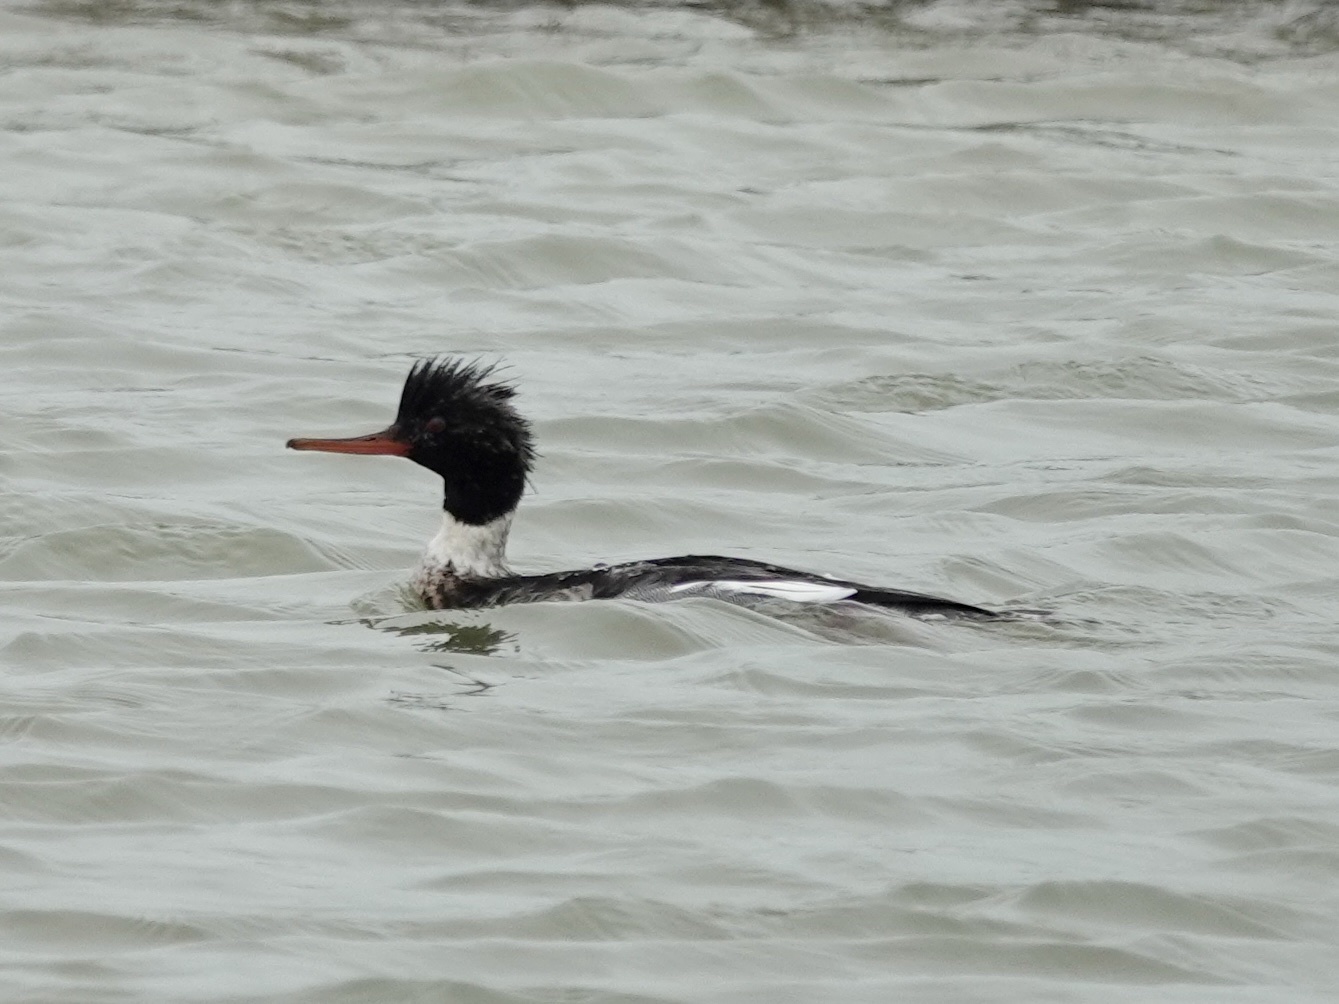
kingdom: Animalia
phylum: Chordata
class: Aves
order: Anseriformes
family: Anatidae
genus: Mergus
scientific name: Mergus serrator
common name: Red-breasted merganser
